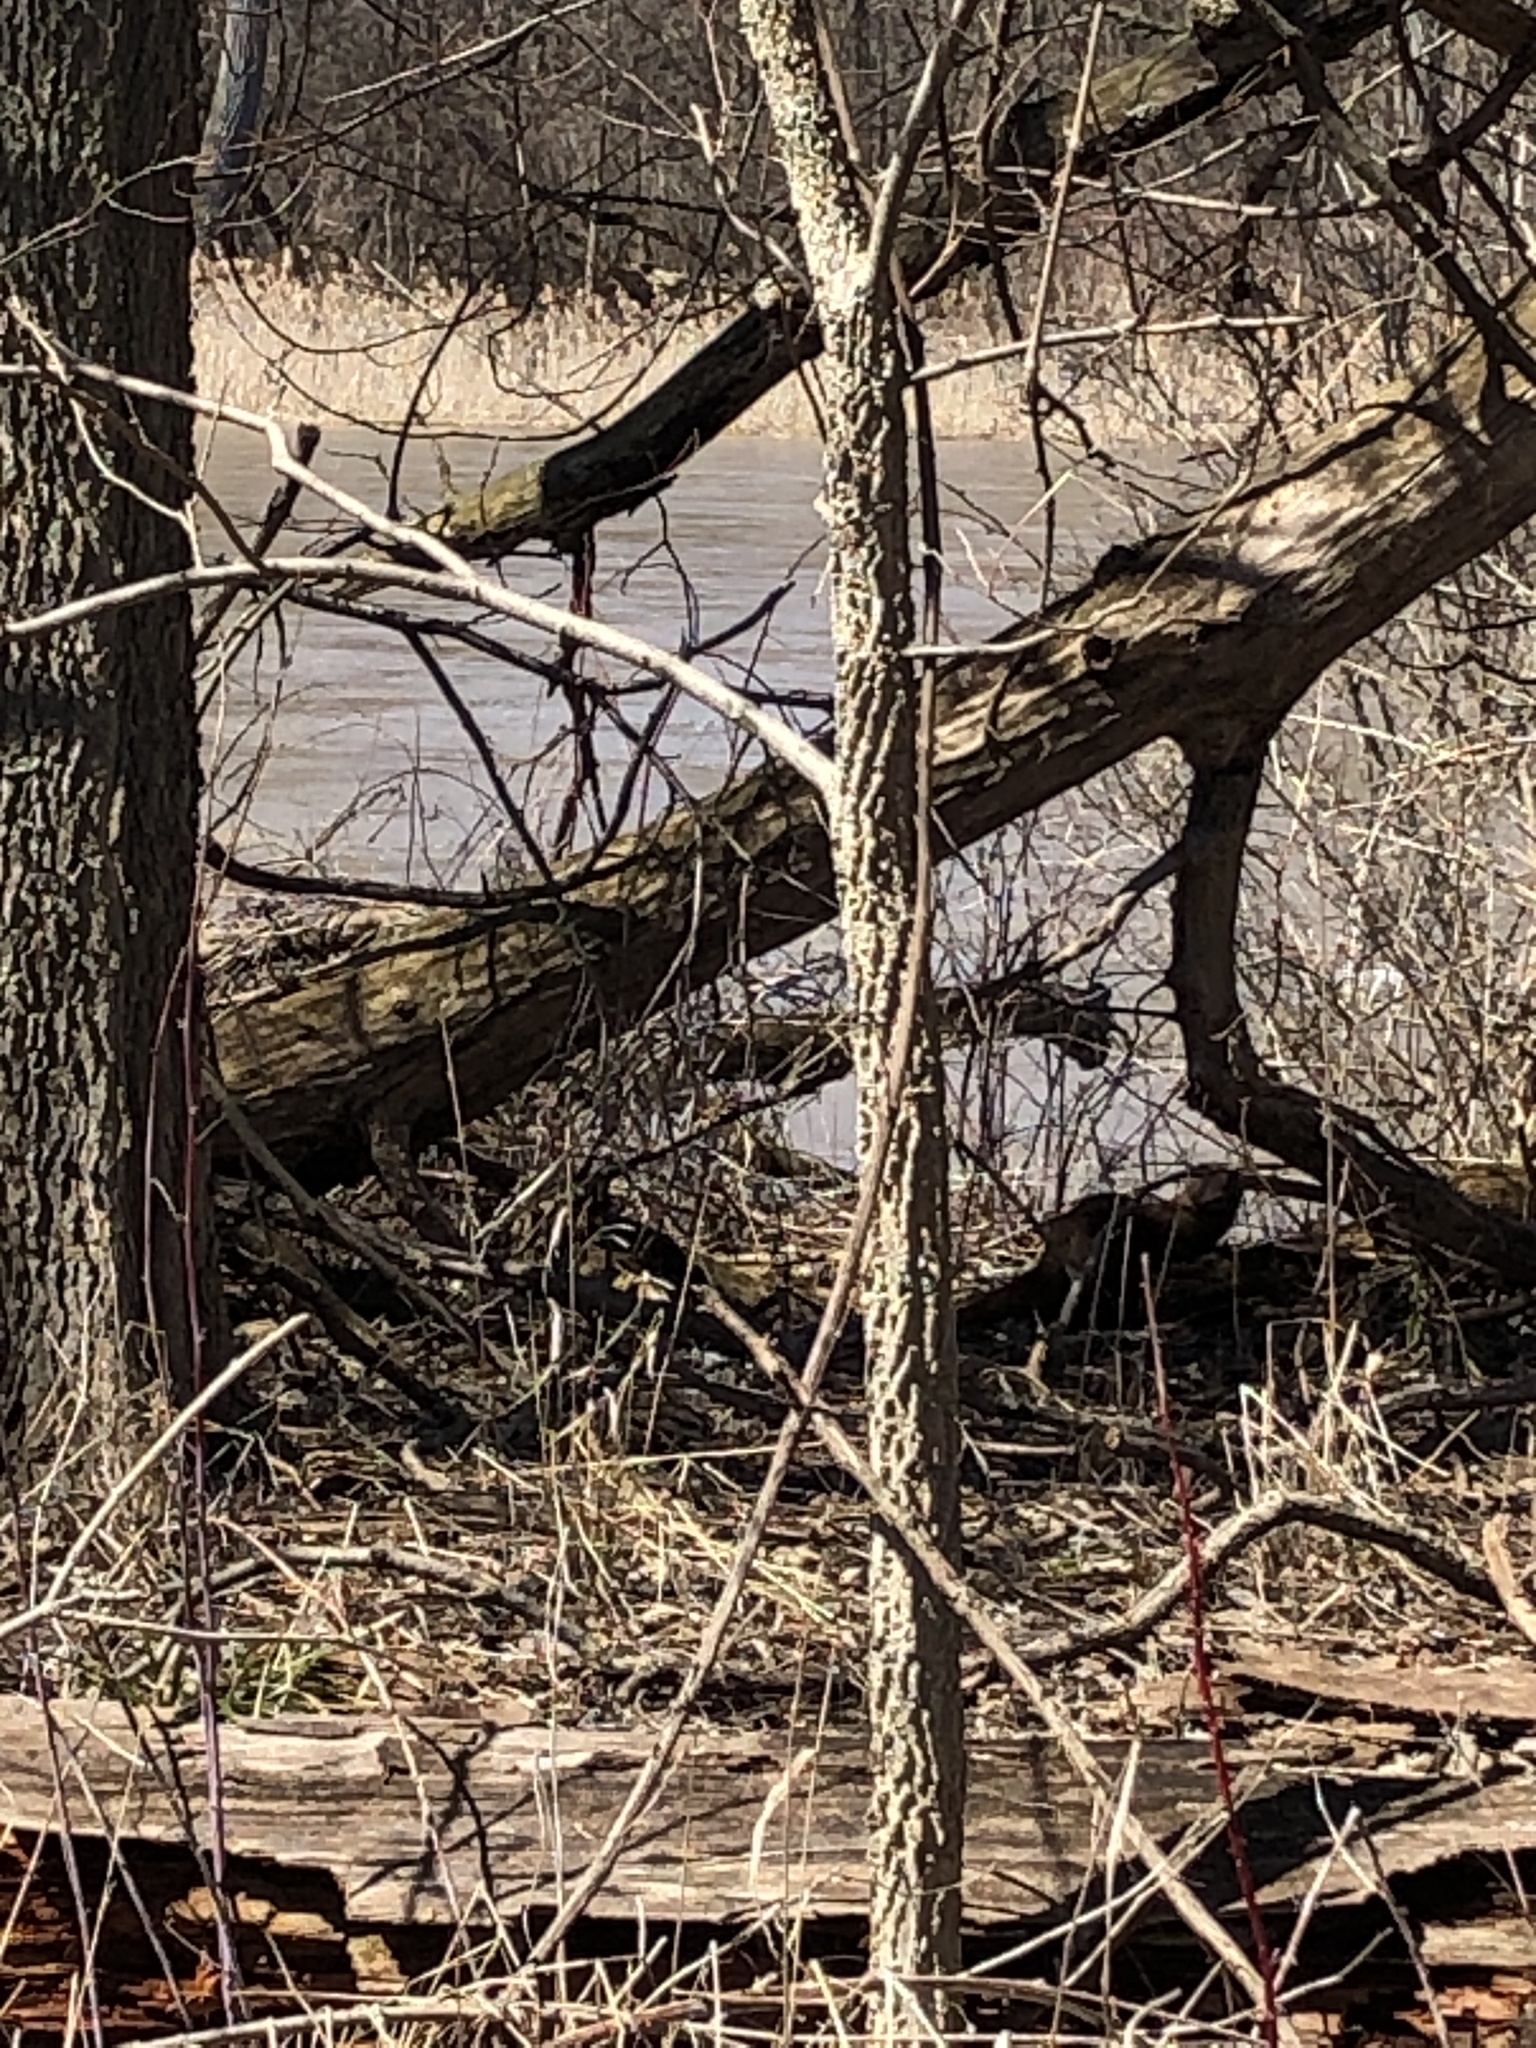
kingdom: Animalia
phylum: Chordata
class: Mammalia
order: Carnivora
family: Mustelidae
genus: Mustela
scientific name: Mustela
